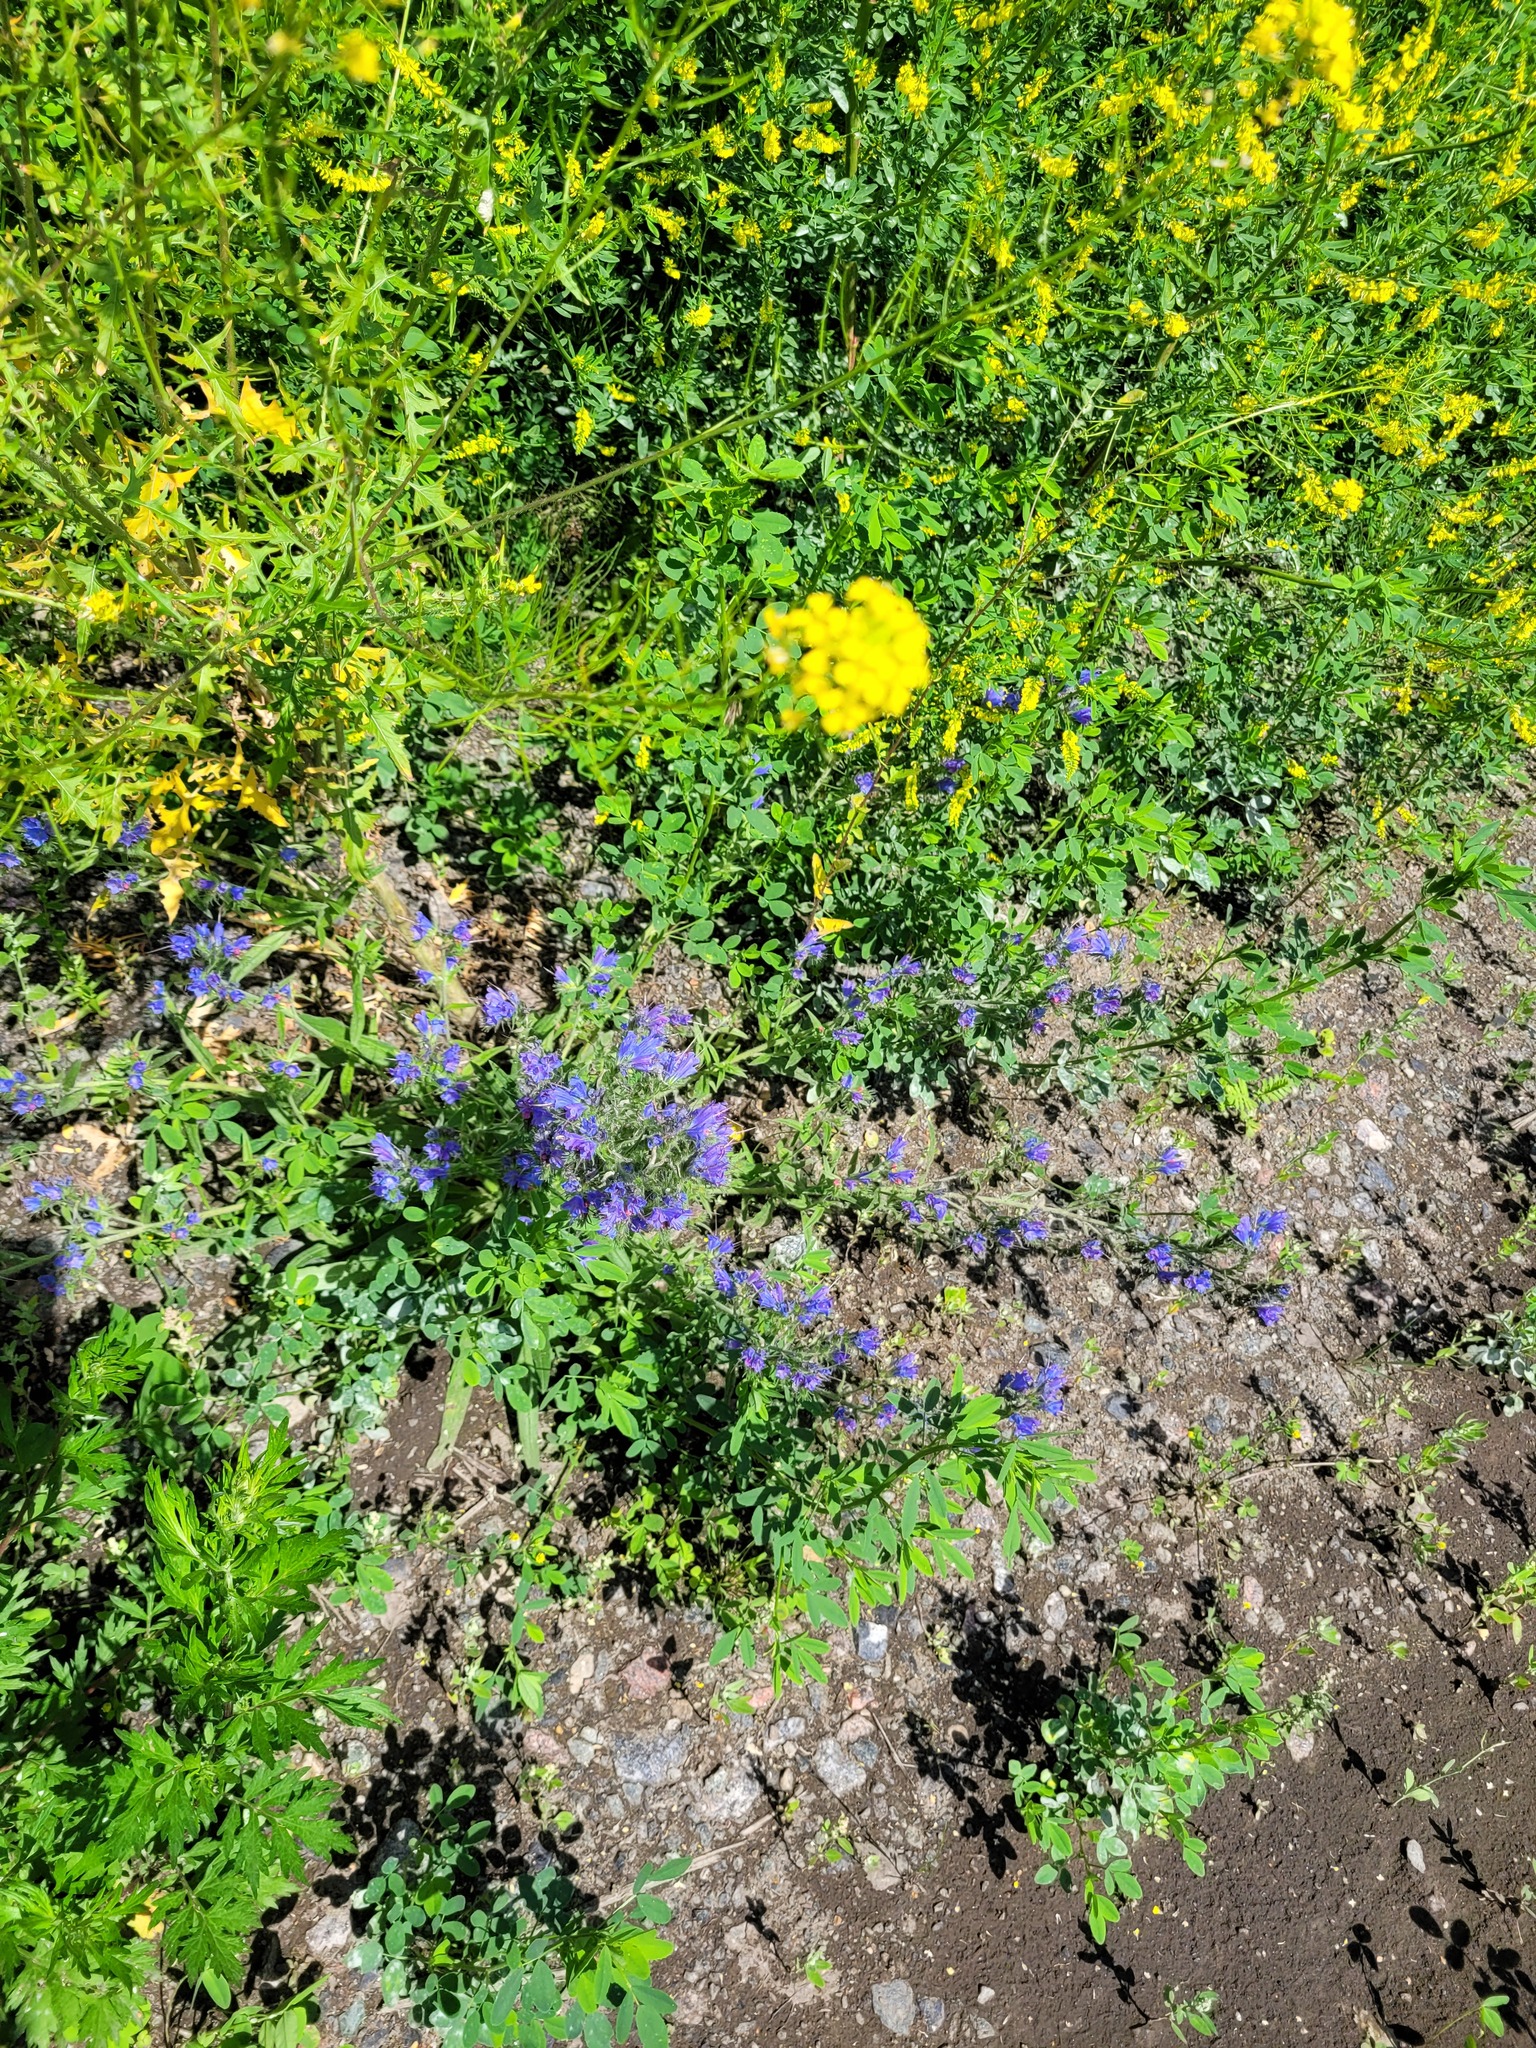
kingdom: Plantae
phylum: Tracheophyta
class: Magnoliopsida
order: Boraginales
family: Boraginaceae
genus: Echium
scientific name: Echium vulgare
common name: Common viper's bugloss
